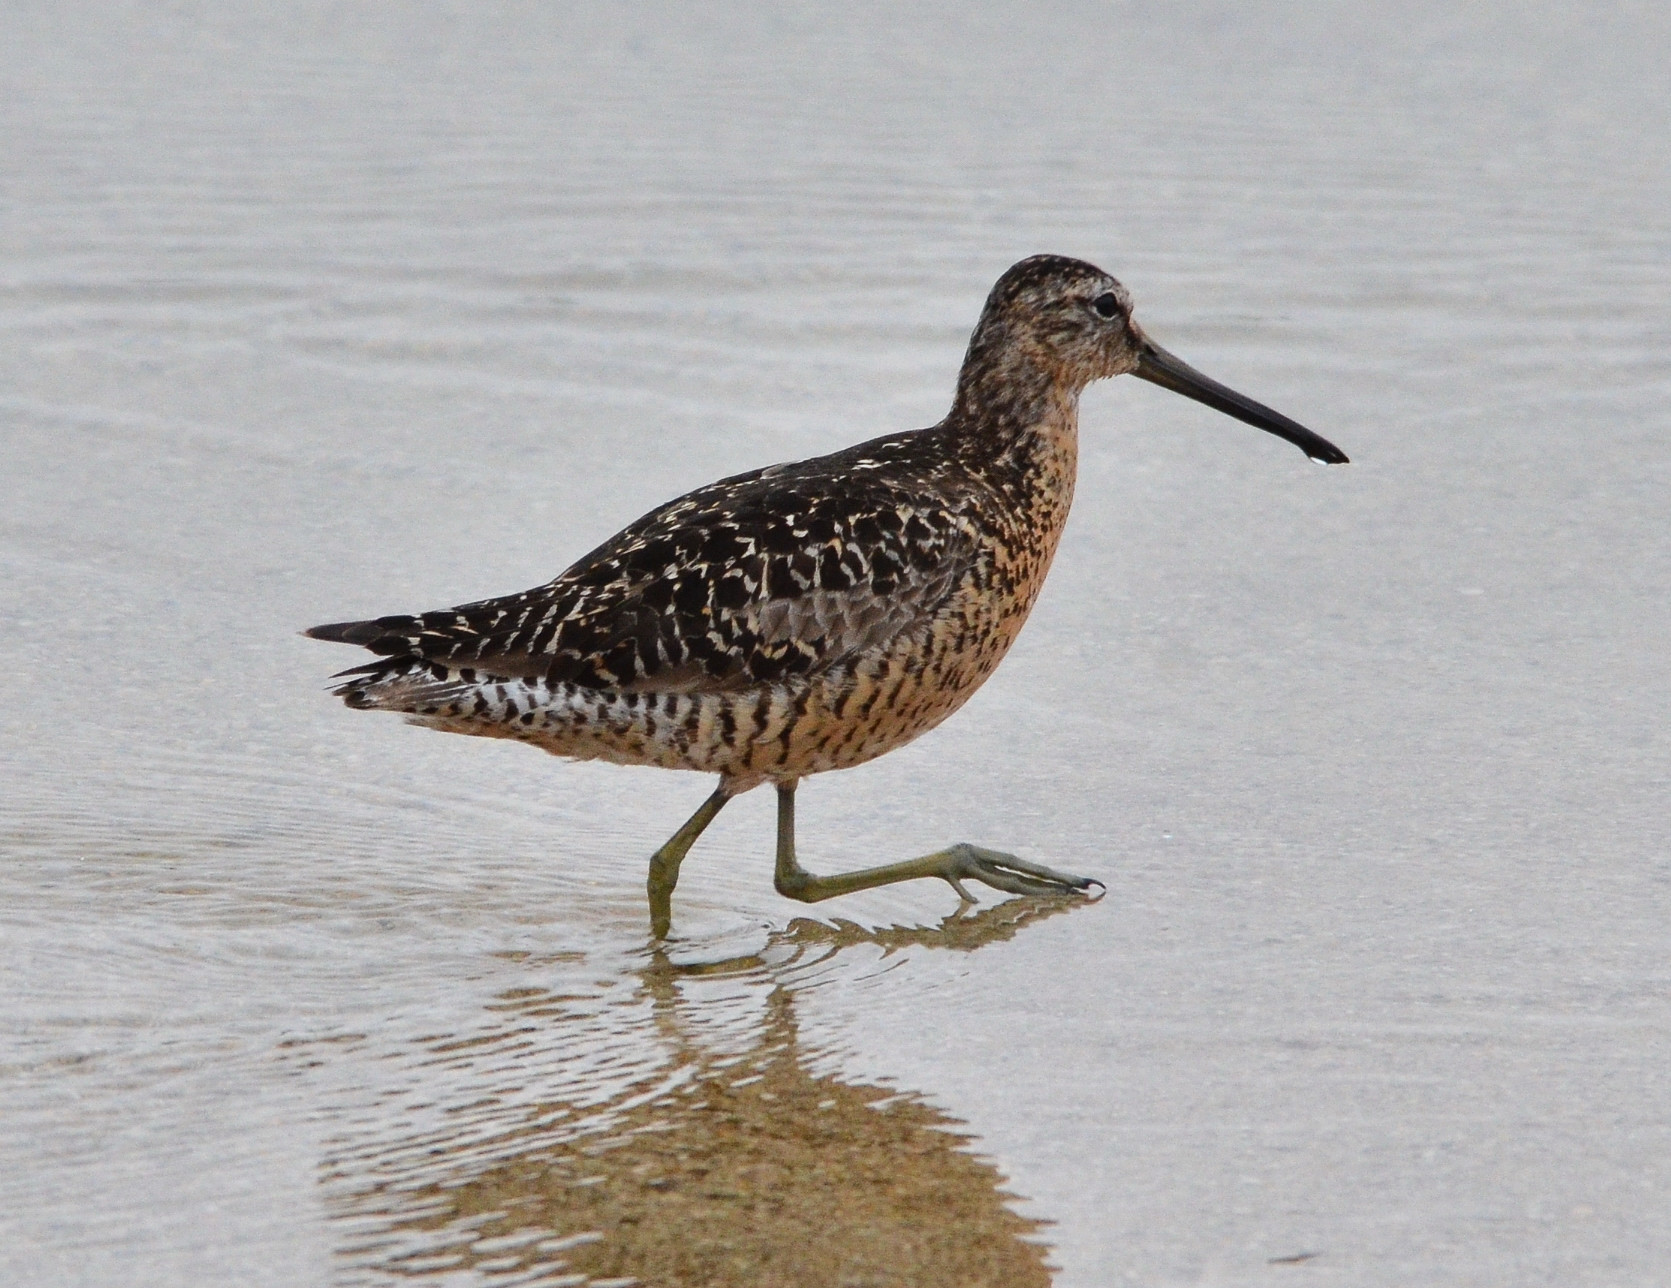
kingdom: Animalia
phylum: Chordata
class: Aves
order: Charadriiformes
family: Scolopacidae
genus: Limnodromus
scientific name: Limnodromus
